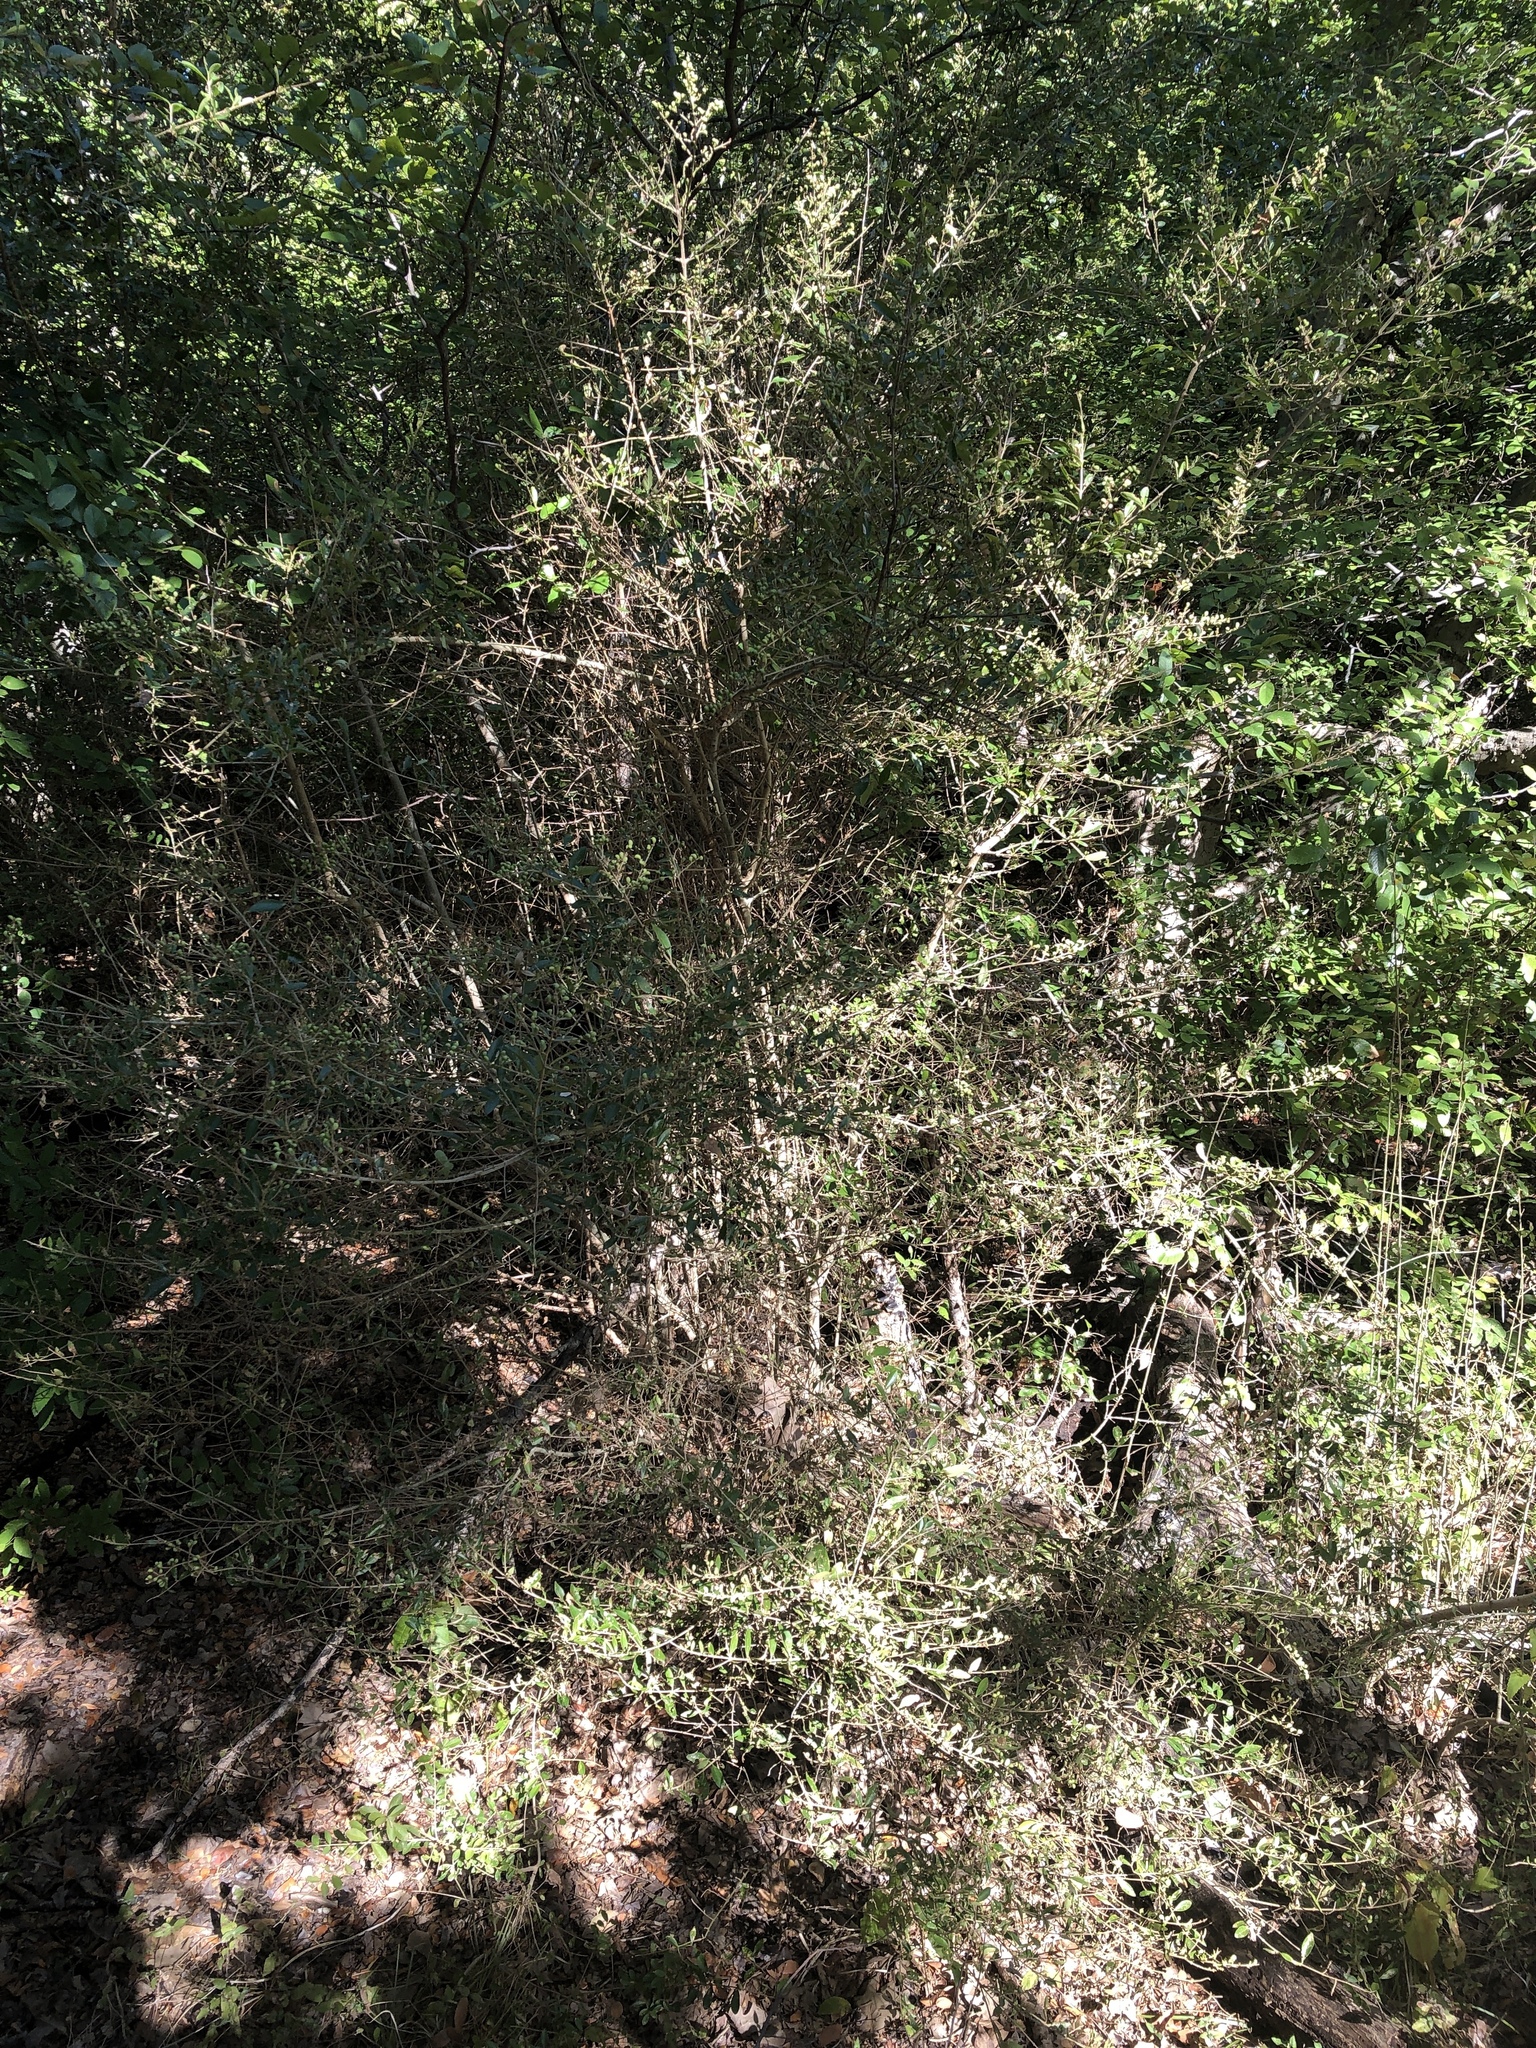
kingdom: Plantae
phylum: Tracheophyta
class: Magnoliopsida
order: Lamiales
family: Oleaceae
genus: Ligustrum
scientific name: Ligustrum quihoui
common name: Waxyleaf privet
